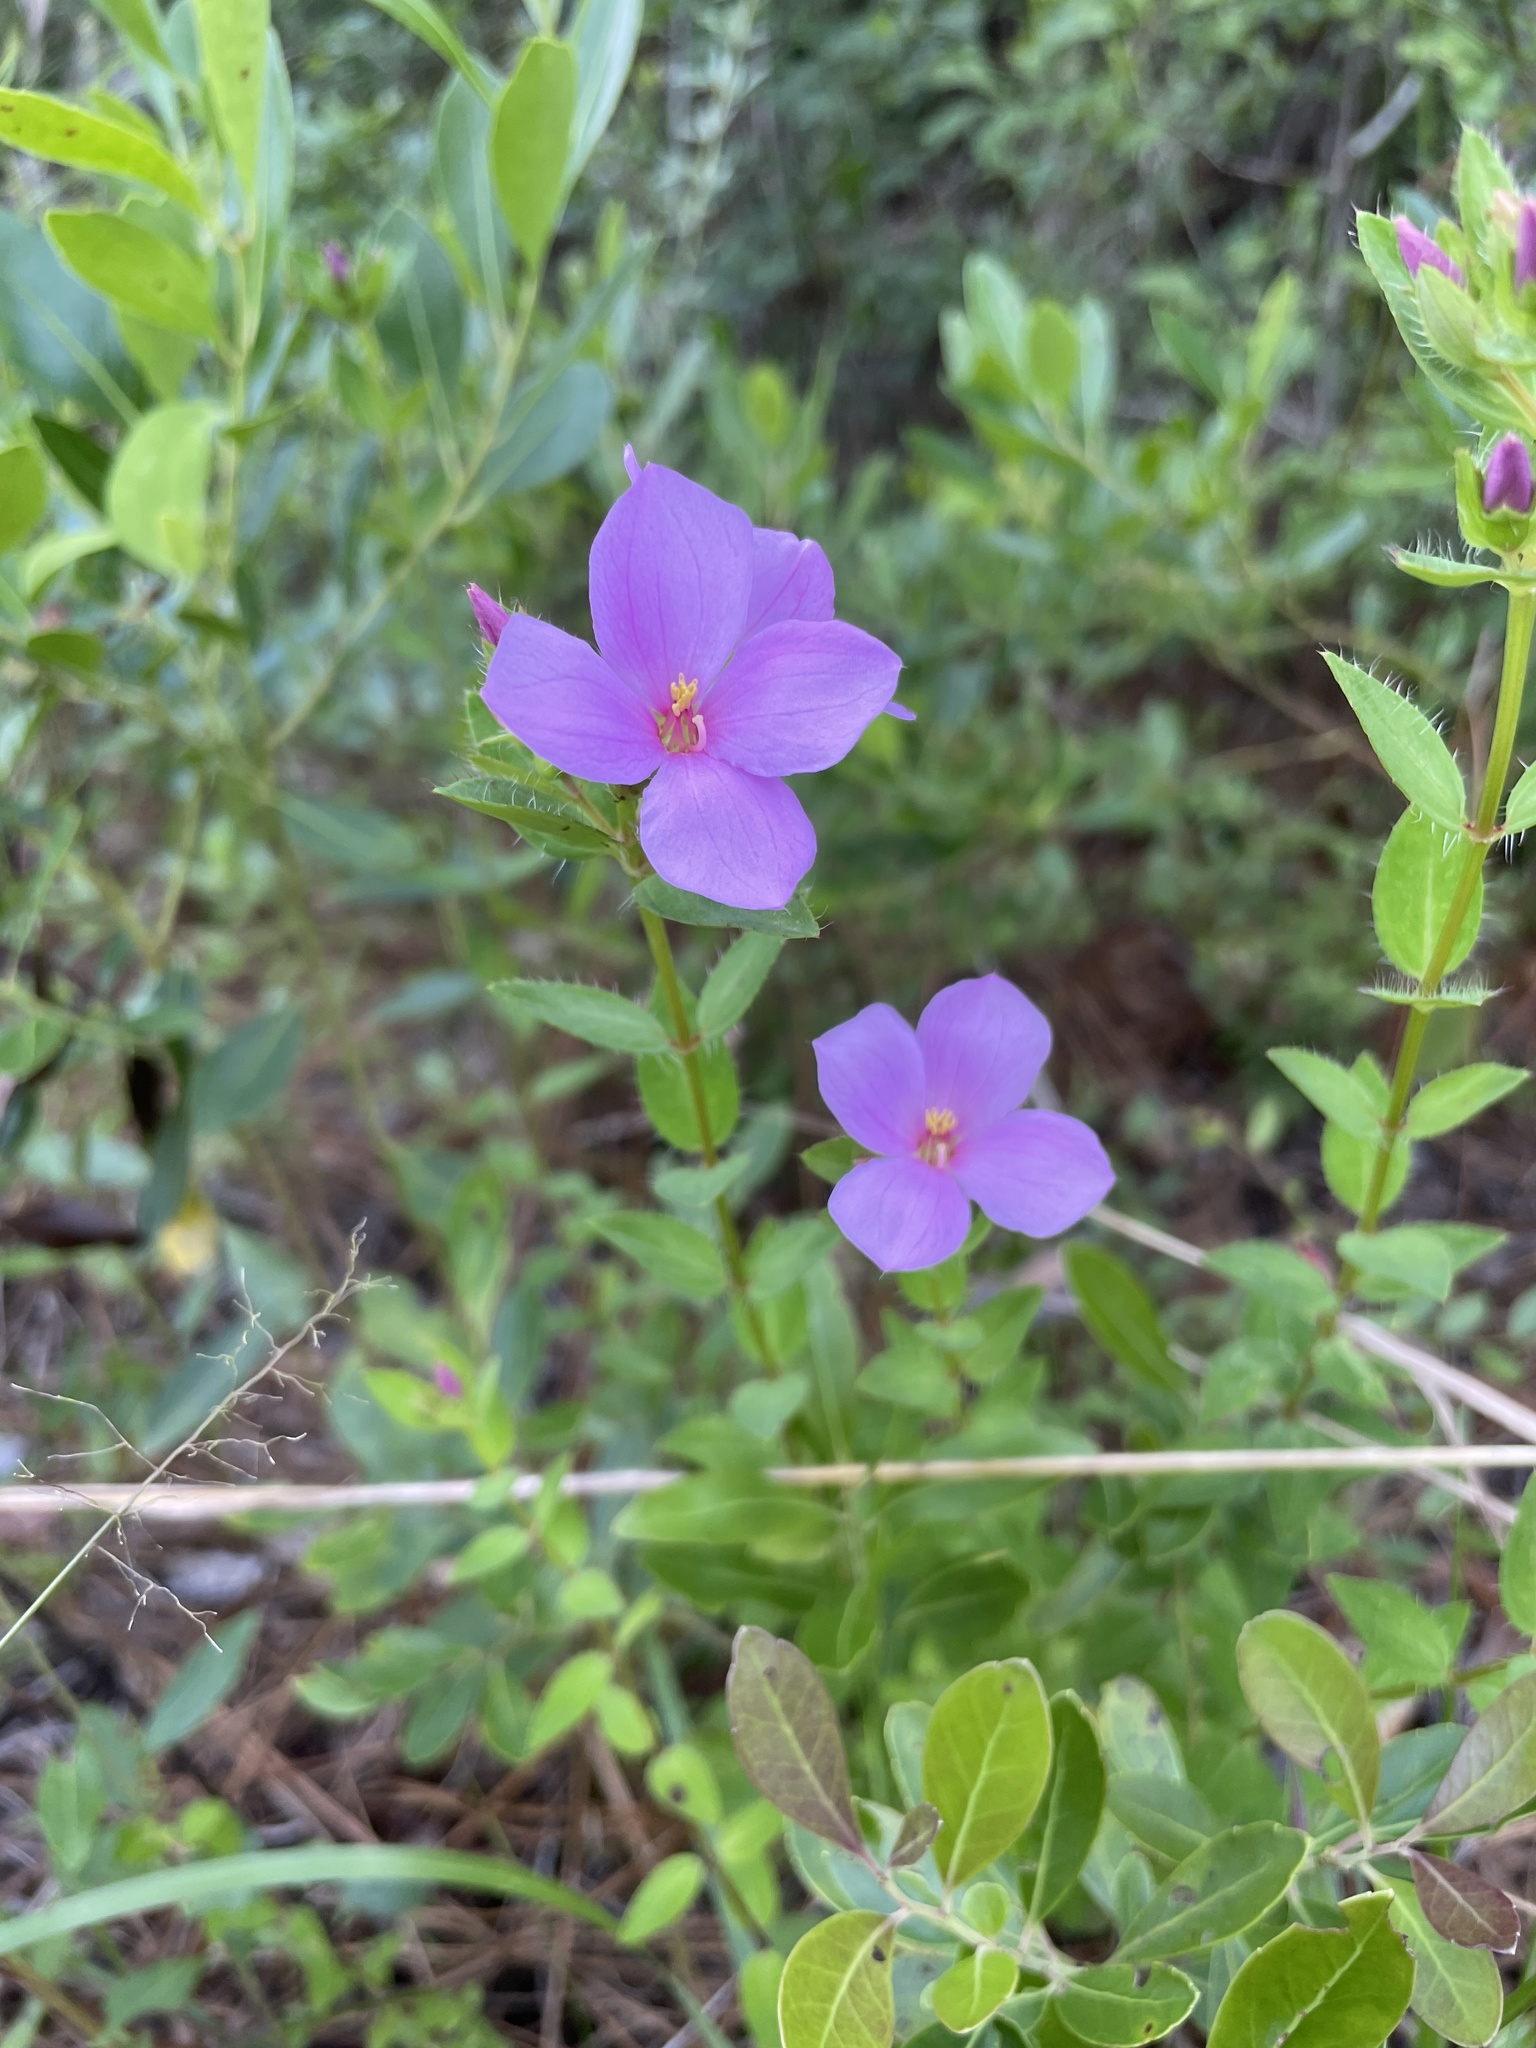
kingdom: Plantae
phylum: Tracheophyta
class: Magnoliopsida
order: Myrtales
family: Melastomataceae
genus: Rhexia
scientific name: Rhexia petiolata
